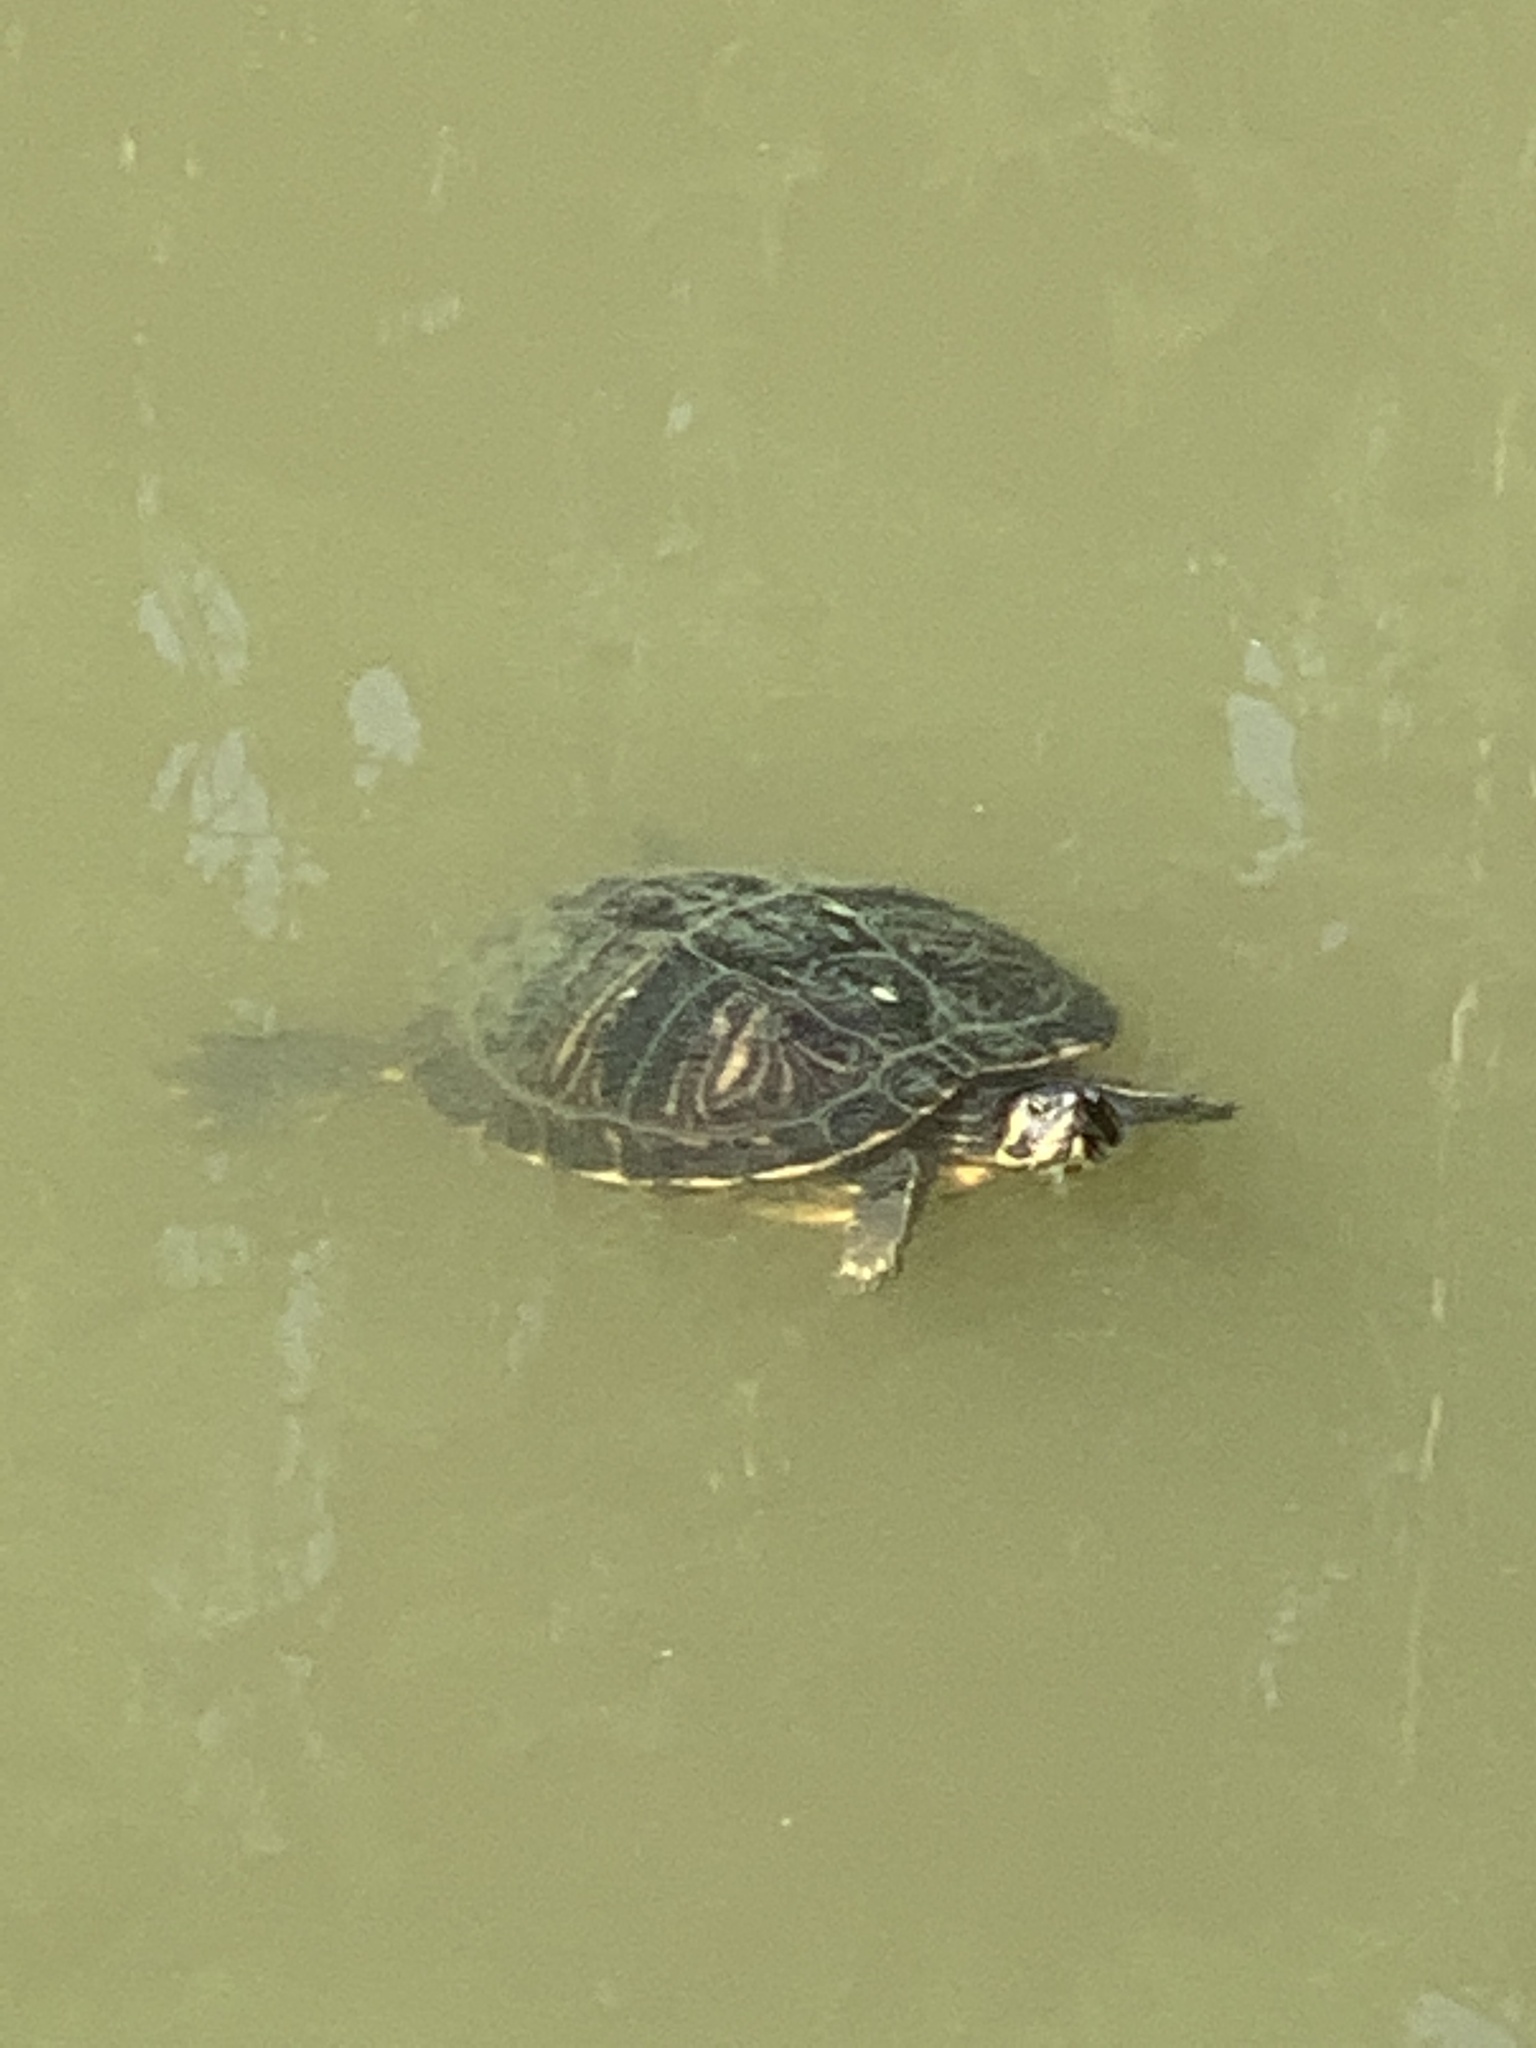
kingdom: Animalia
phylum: Chordata
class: Testudines
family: Emydidae
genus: Trachemys
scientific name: Trachemys scripta
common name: Slider
